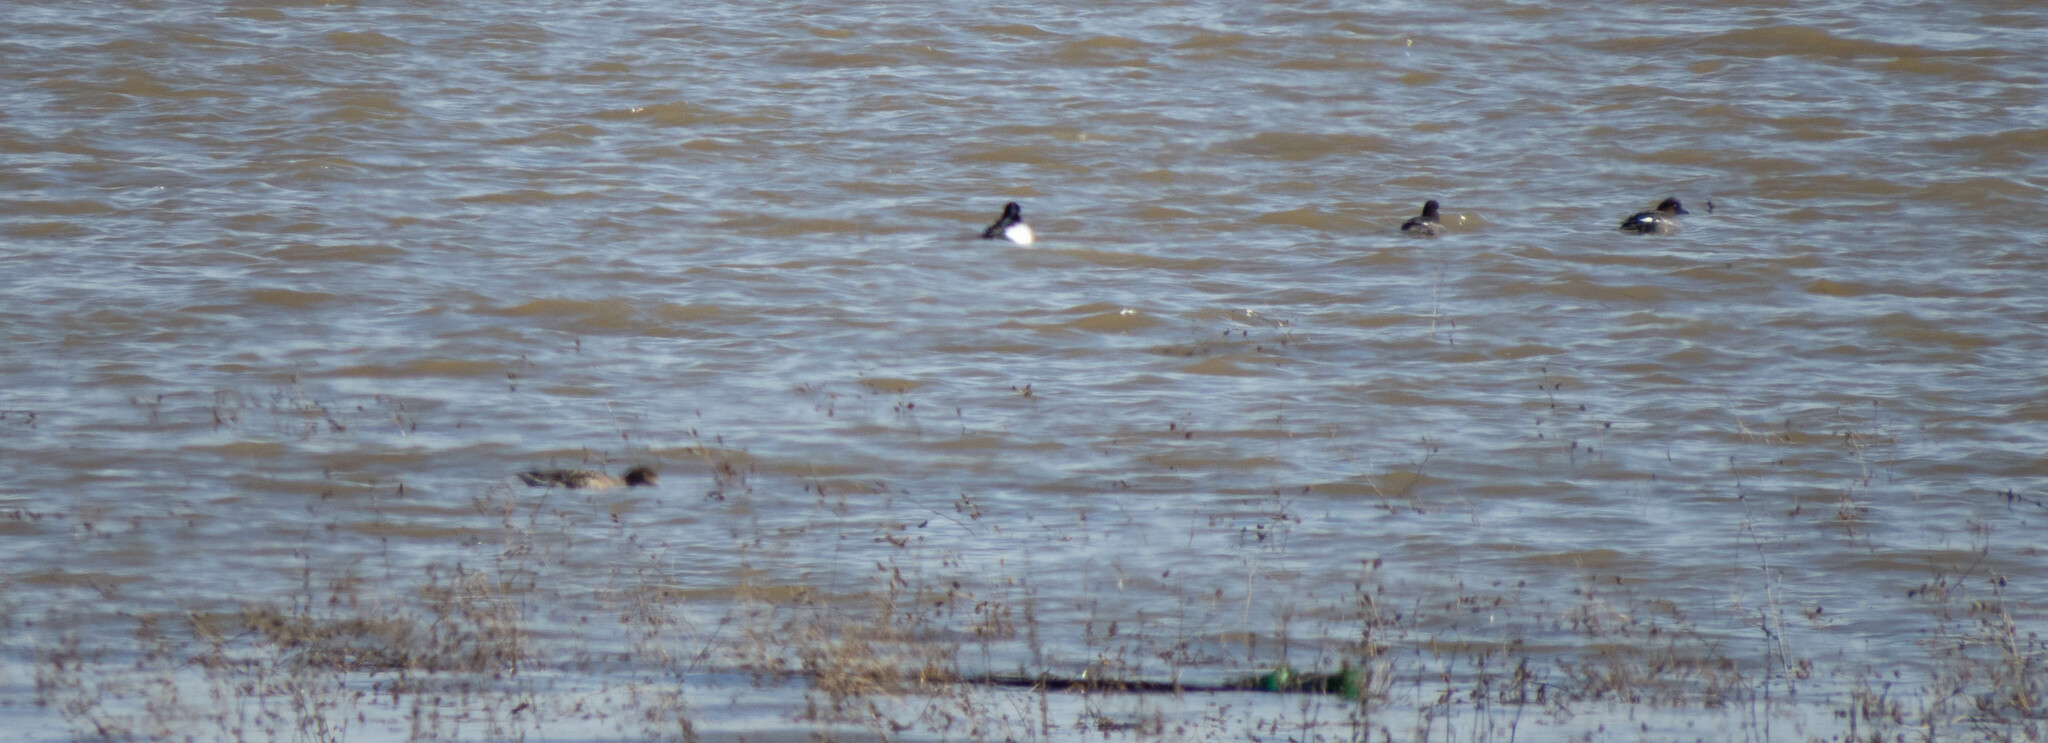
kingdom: Animalia
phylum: Chordata
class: Aves
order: Anseriformes
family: Anatidae
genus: Bucephala
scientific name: Bucephala clangula
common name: Common goldeneye
